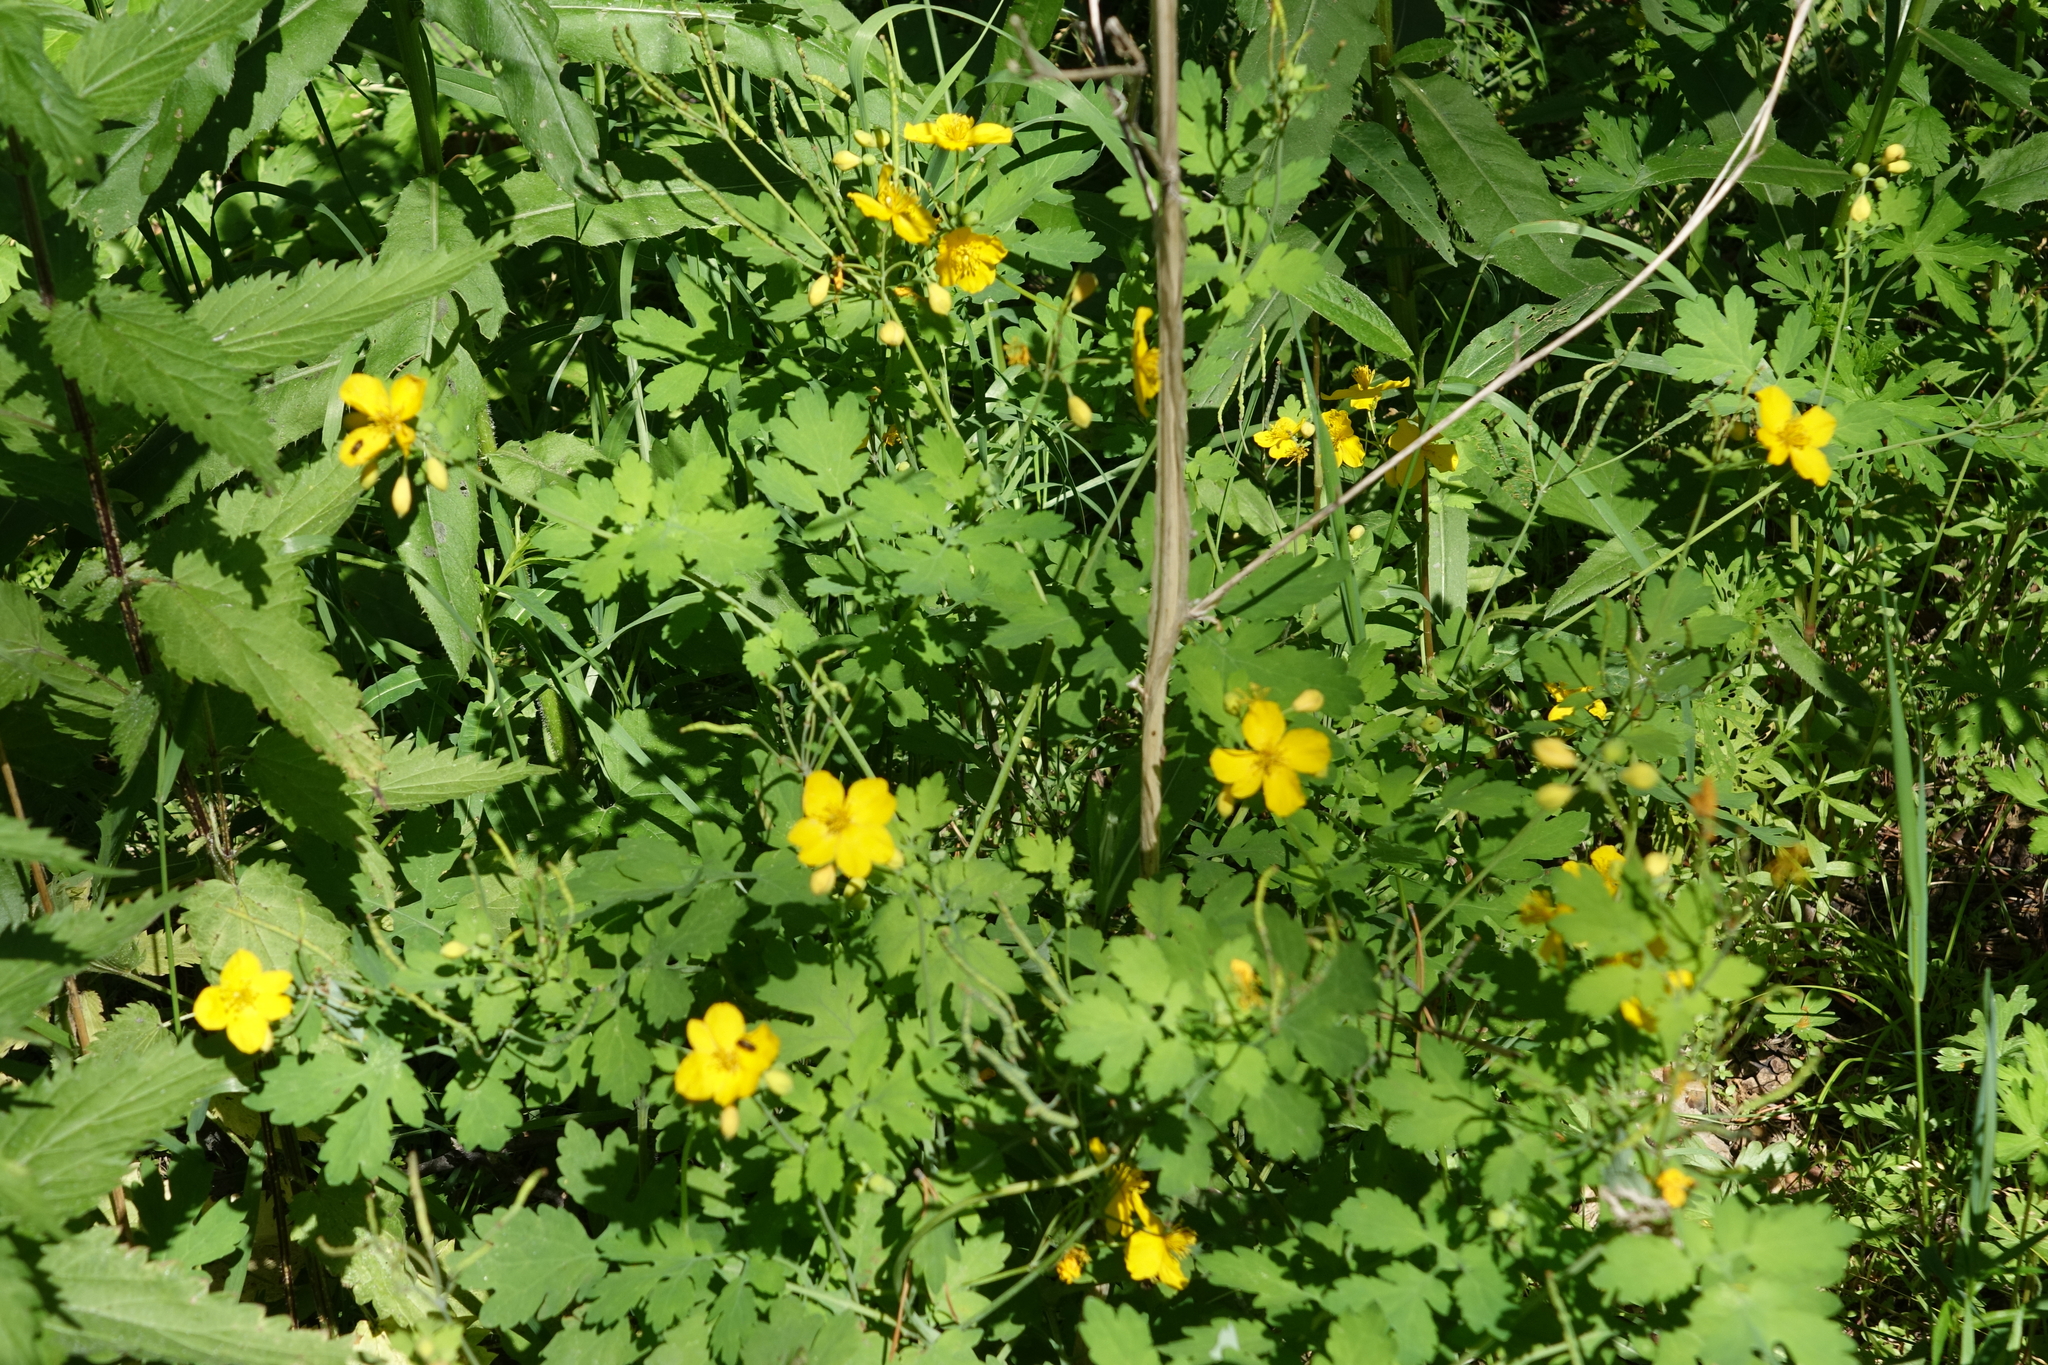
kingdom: Plantae
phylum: Tracheophyta
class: Magnoliopsida
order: Ranunculales
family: Papaveraceae
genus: Chelidonium
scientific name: Chelidonium majus
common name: Greater celandine
